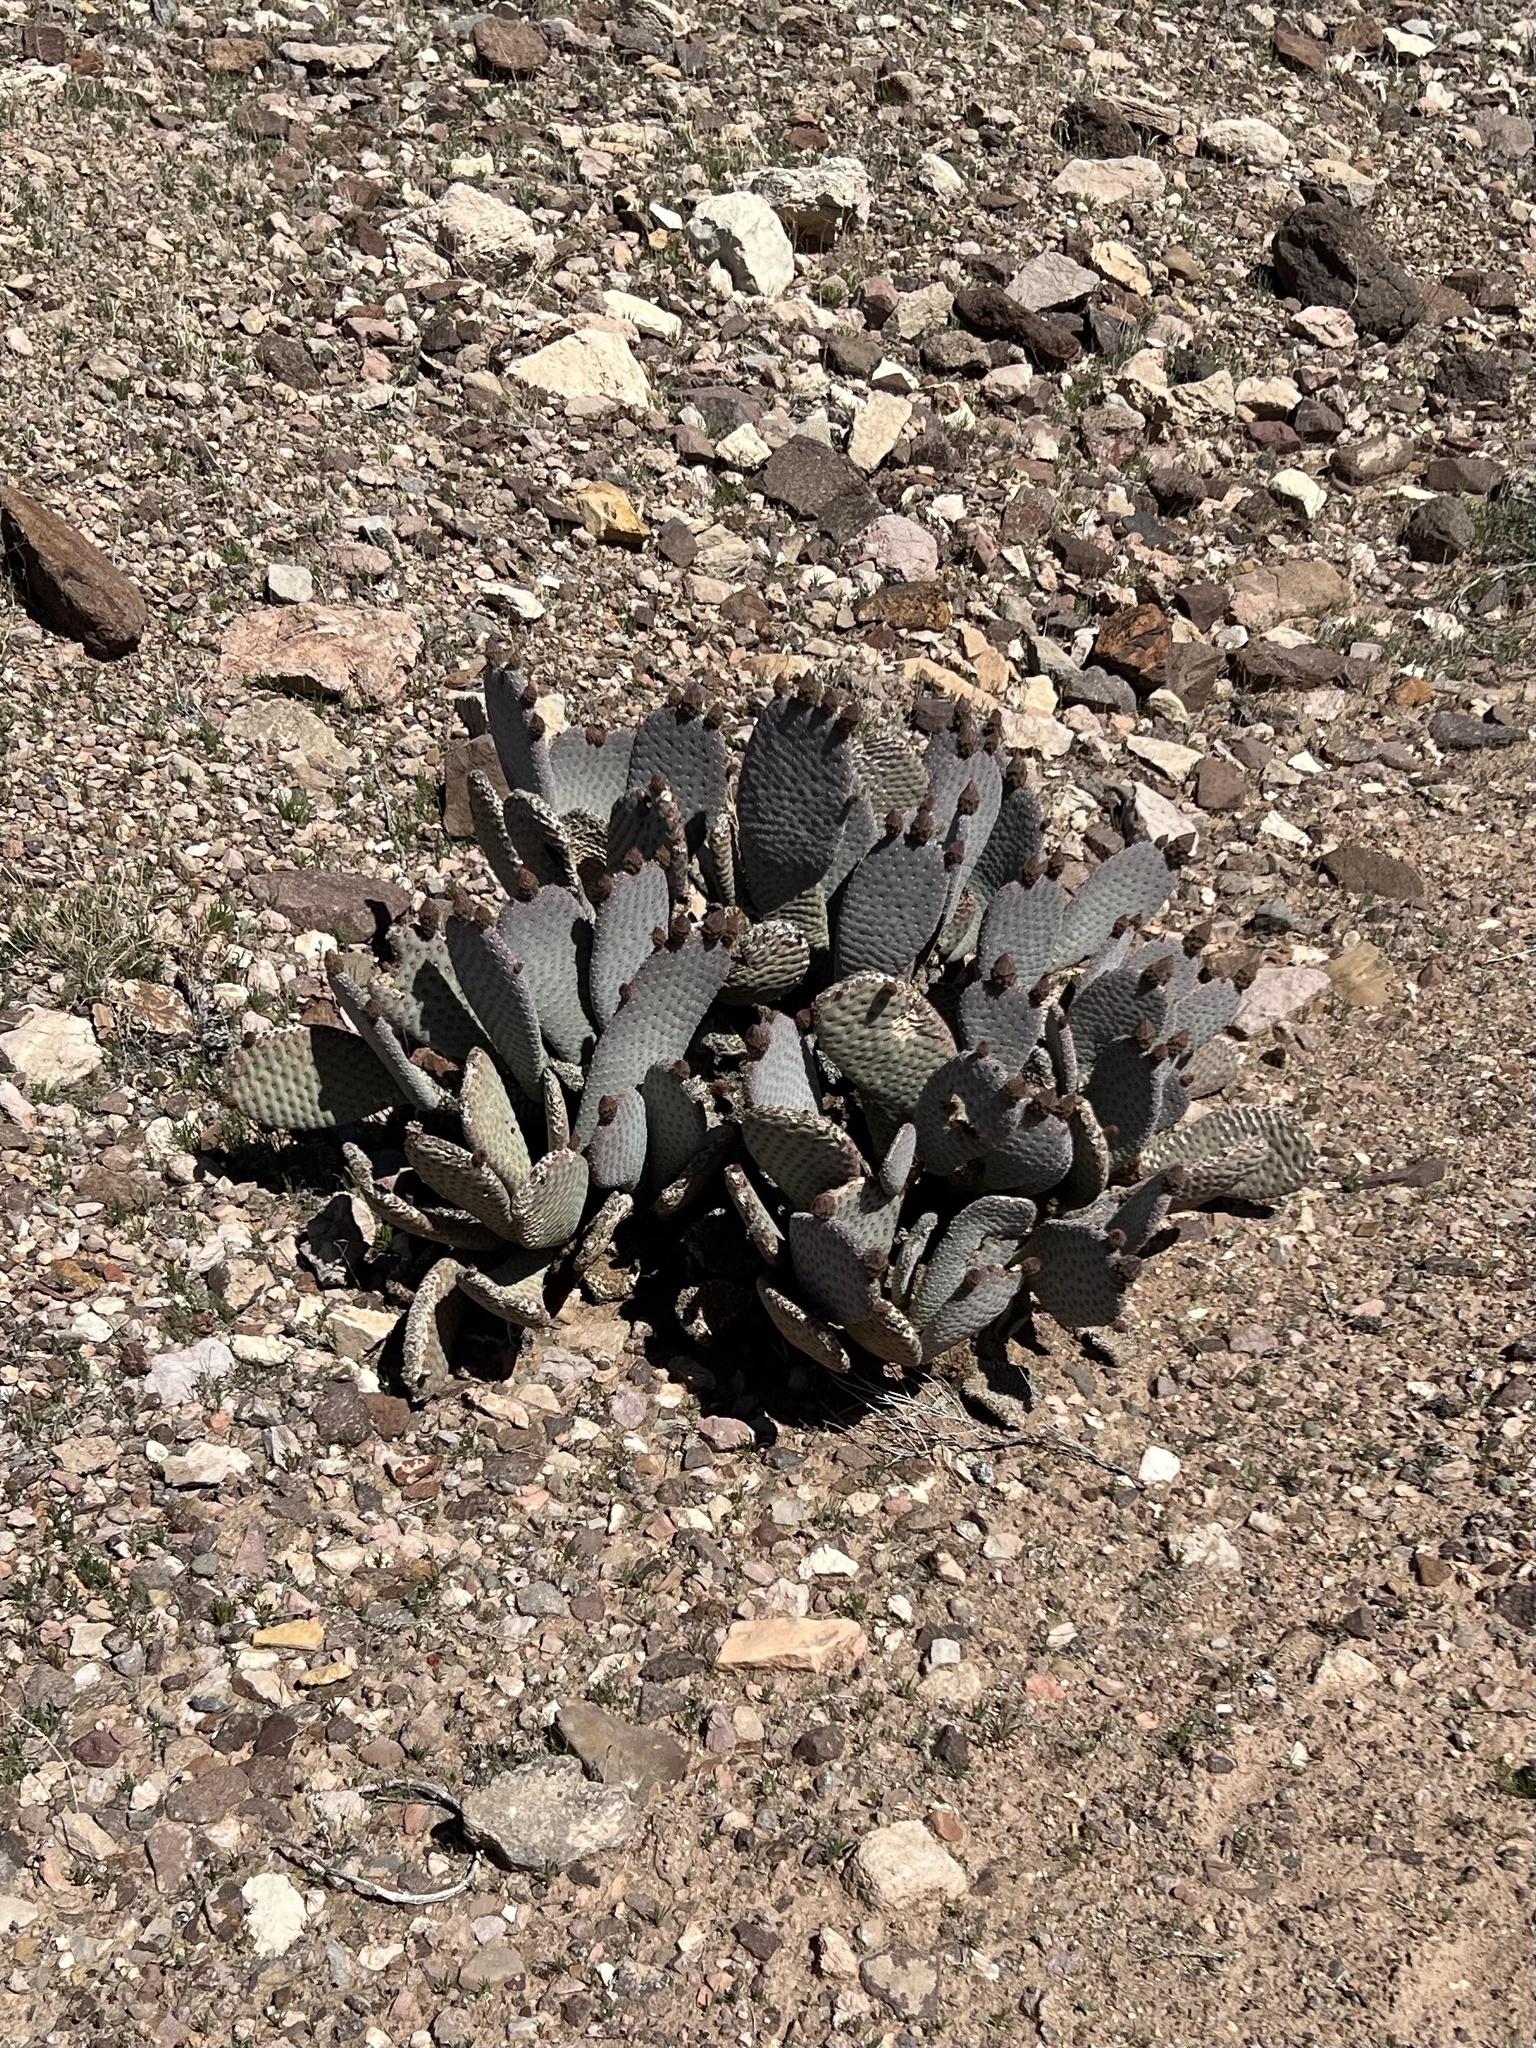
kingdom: Plantae
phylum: Tracheophyta
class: Magnoliopsida
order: Caryophyllales
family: Cactaceae
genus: Opuntia
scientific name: Opuntia basilaris
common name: Beavertail prickly-pear
